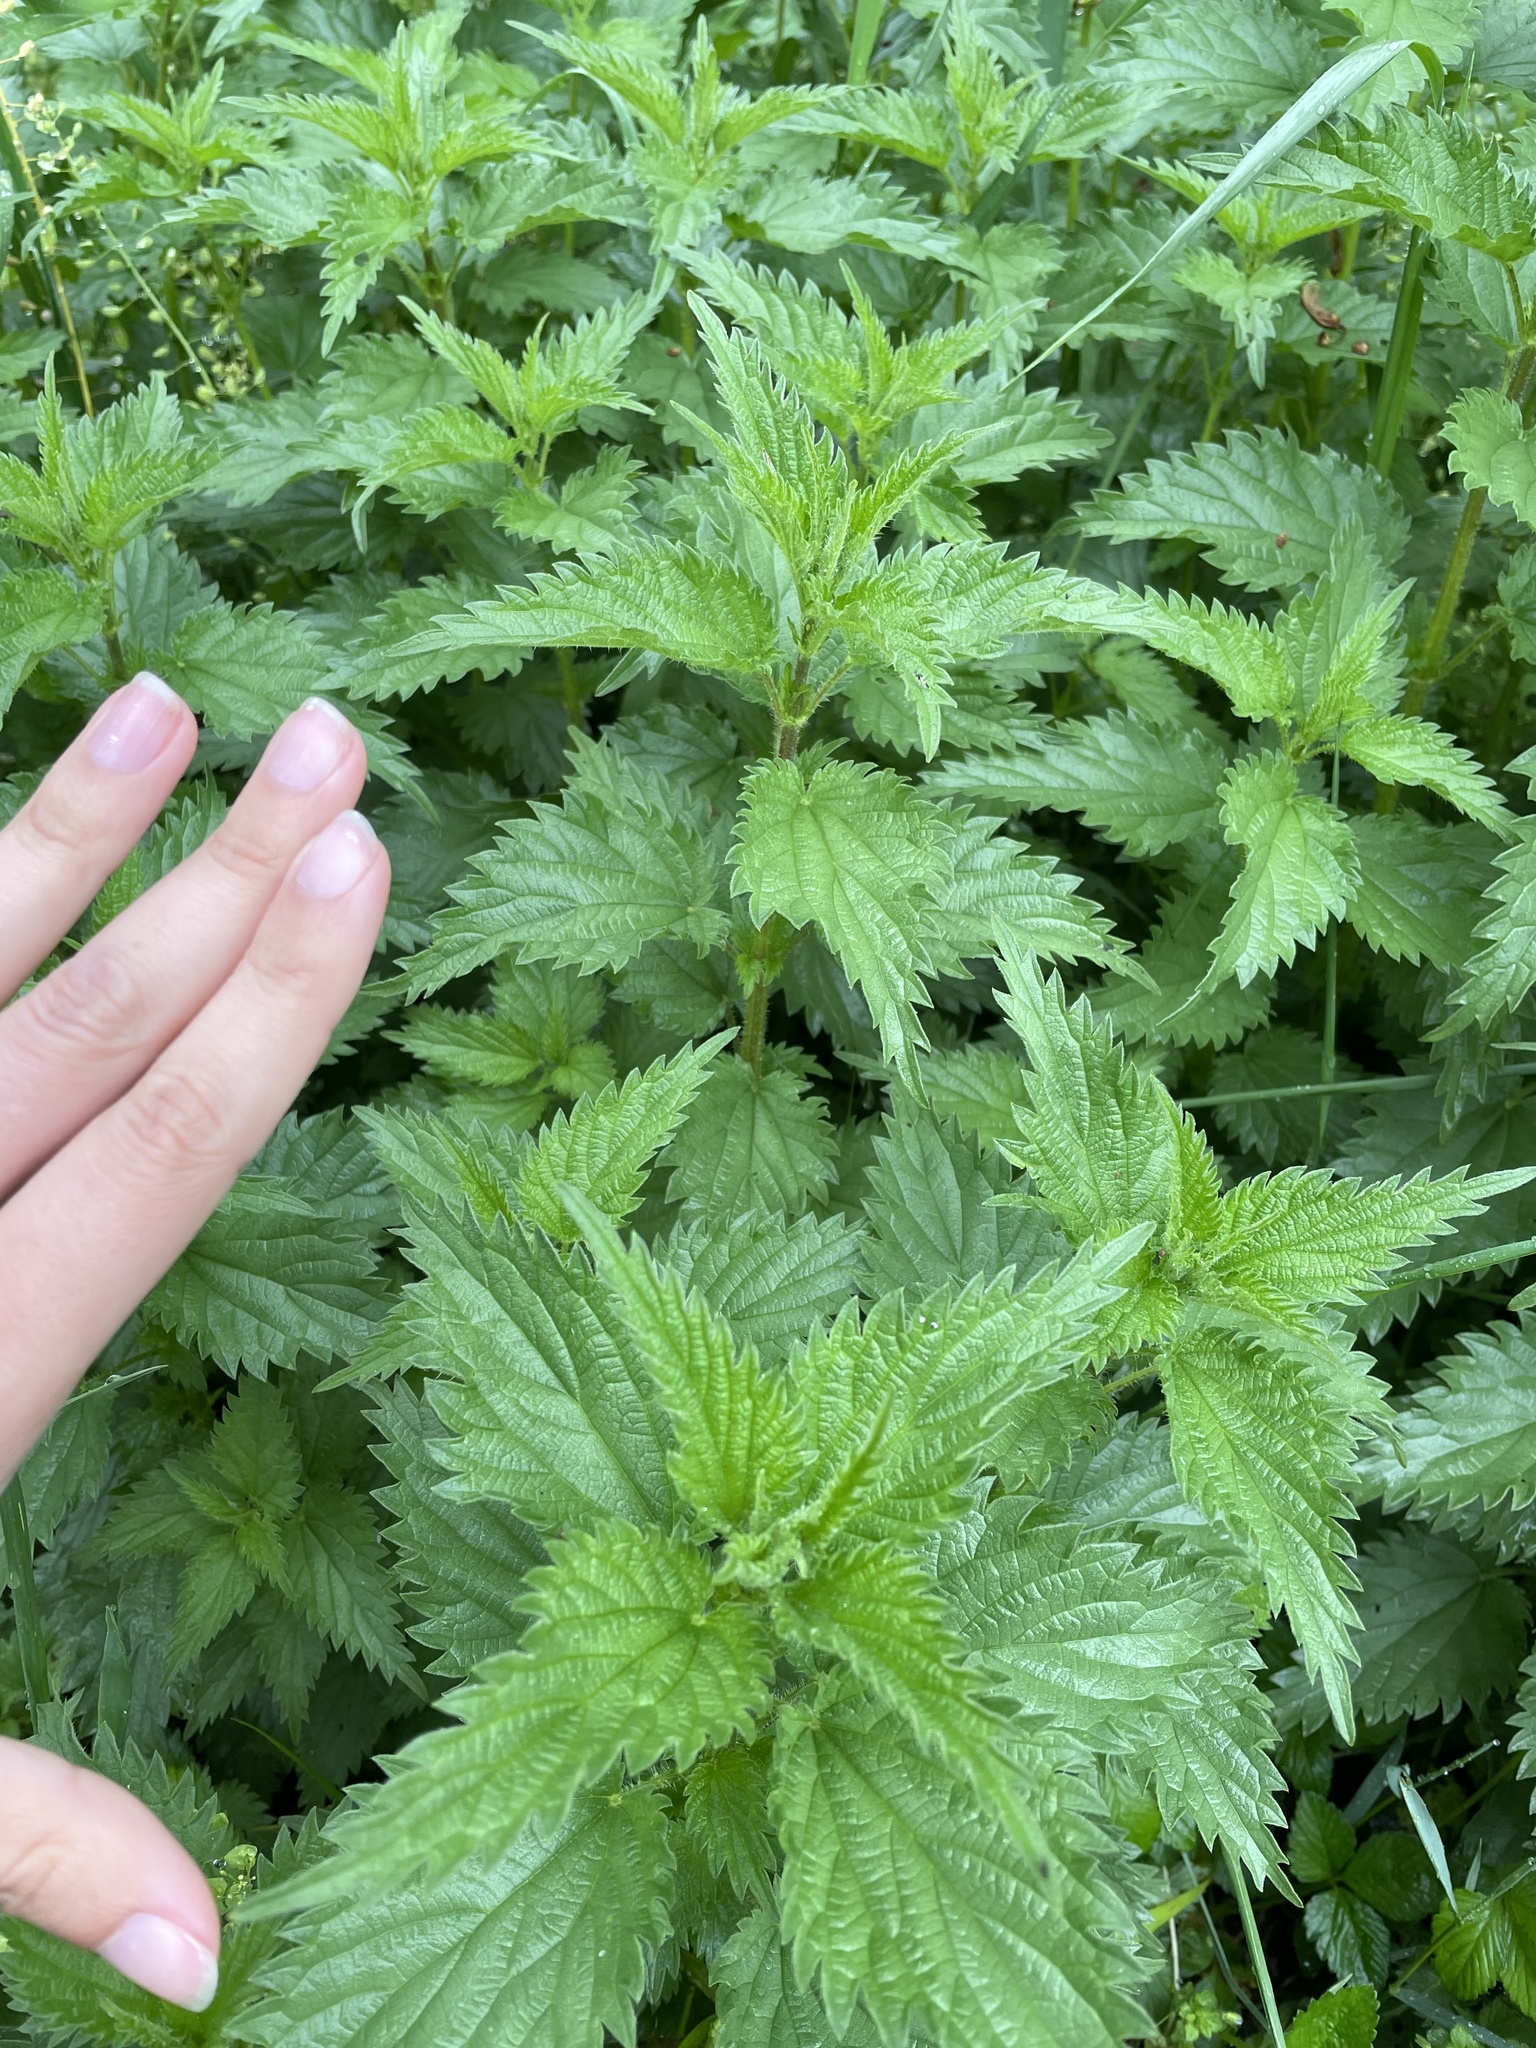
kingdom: Plantae
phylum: Tracheophyta
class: Magnoliopsida
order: Rosales
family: Urticaceae
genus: Urtica
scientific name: Urtica dioica
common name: Common nettle
